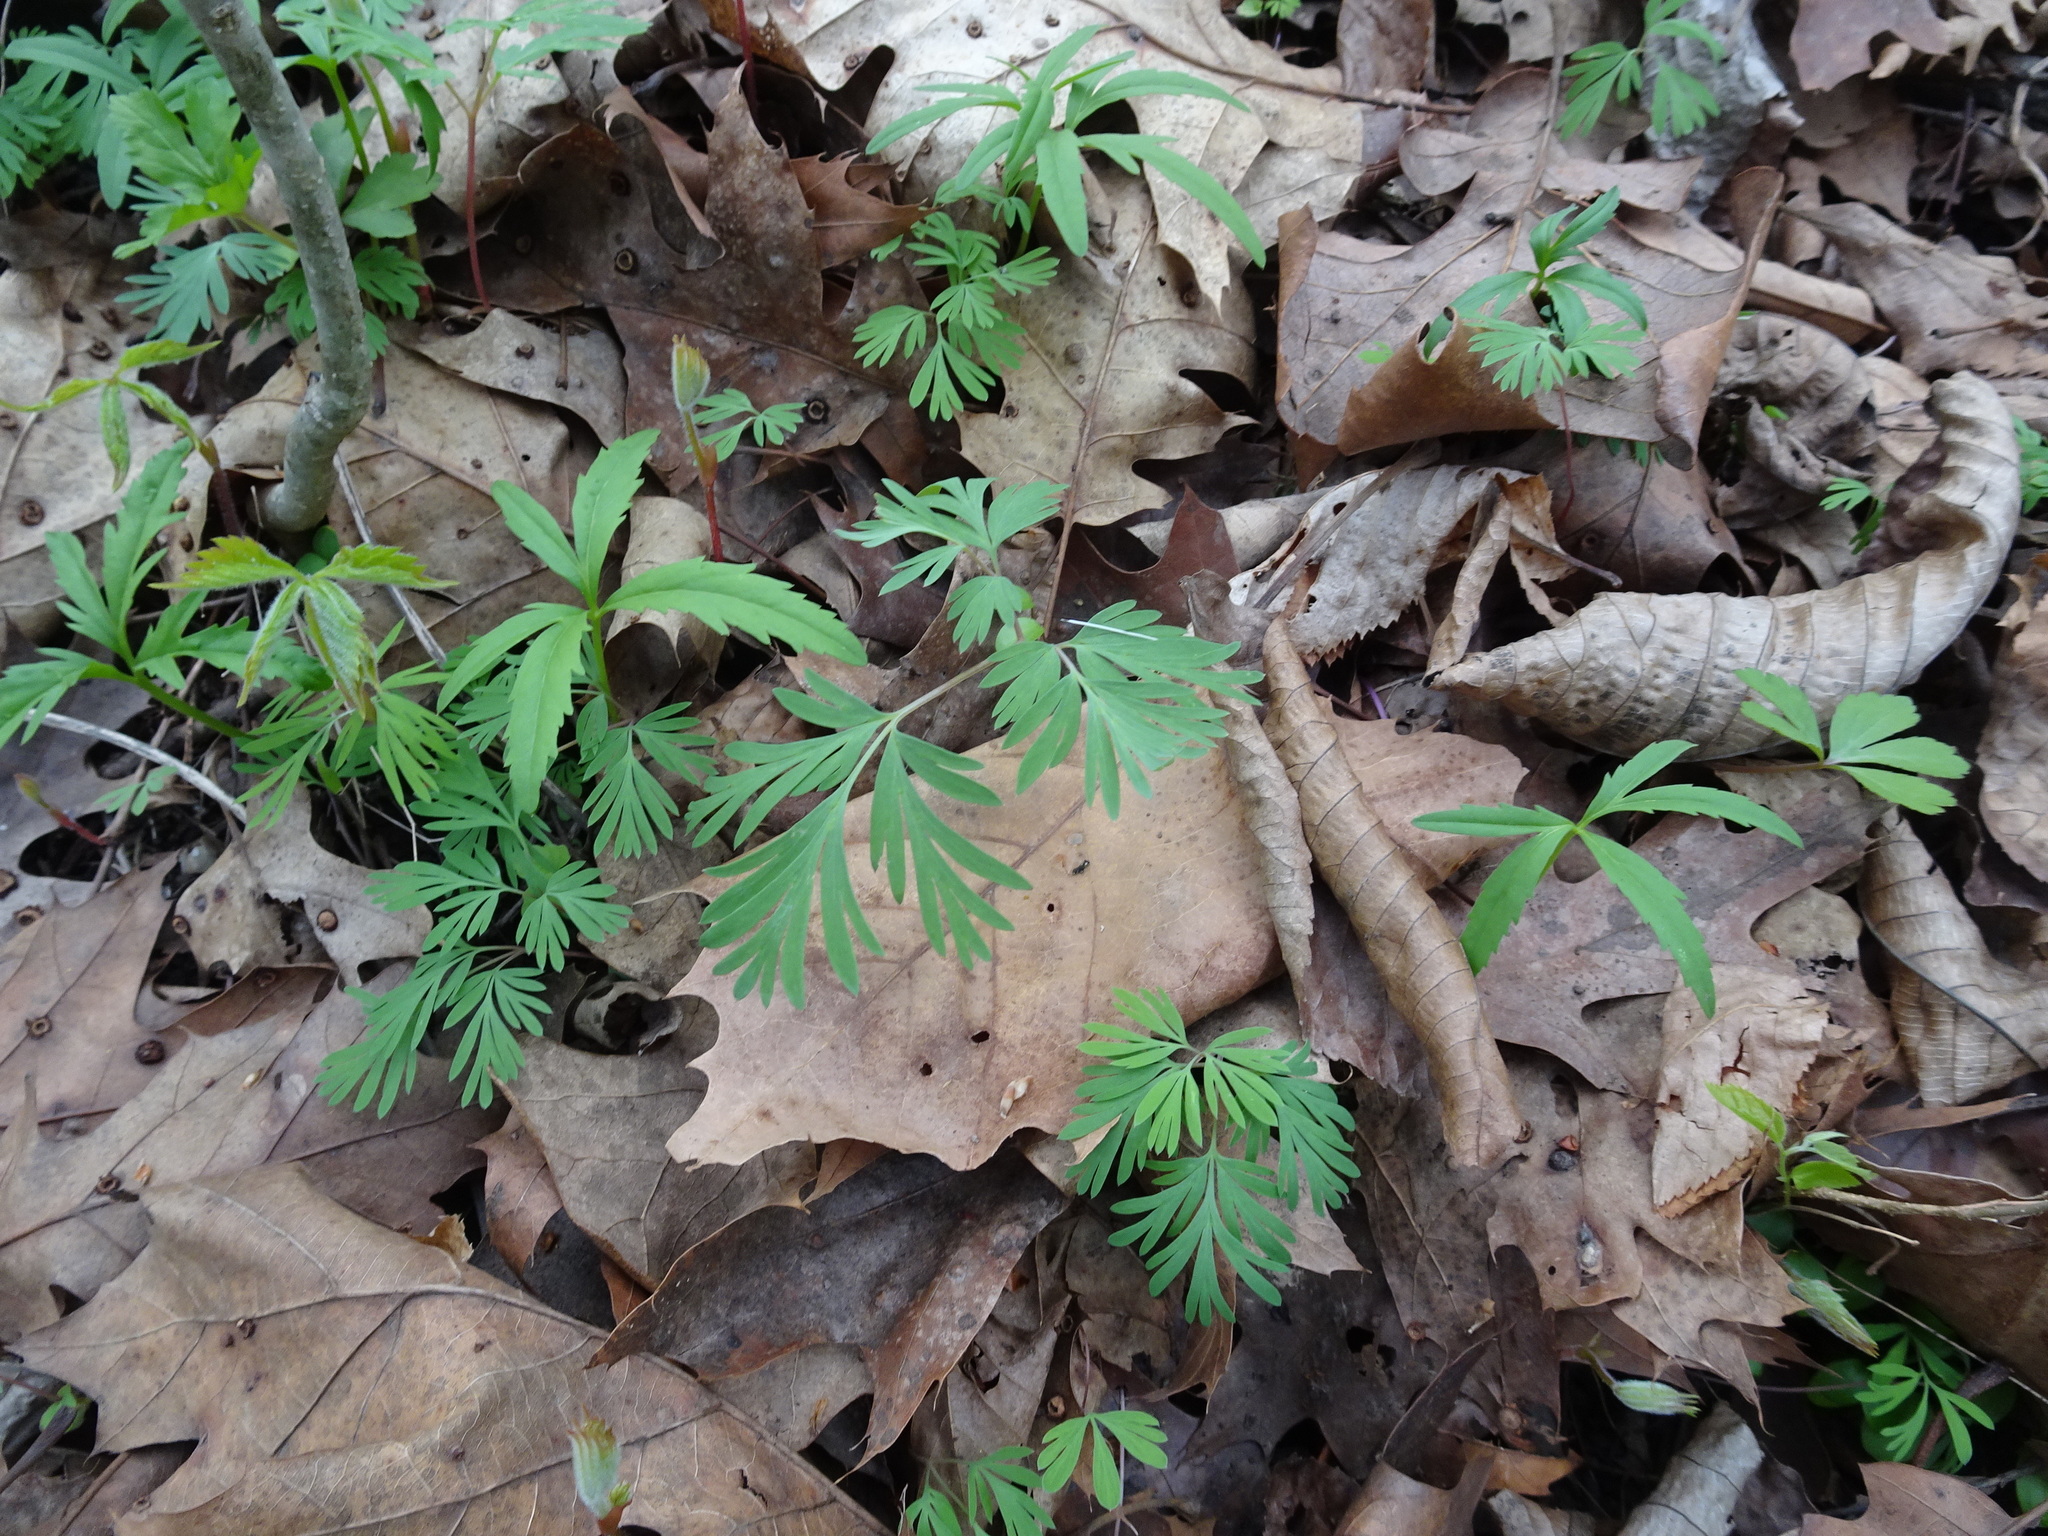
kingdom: Plantae
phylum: Tracheophyta
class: Magnoliopsida
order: Ranunculales
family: Papaveraceae
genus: Dicentra
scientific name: Dicentra cucullaria
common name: Dutchman's breeches
